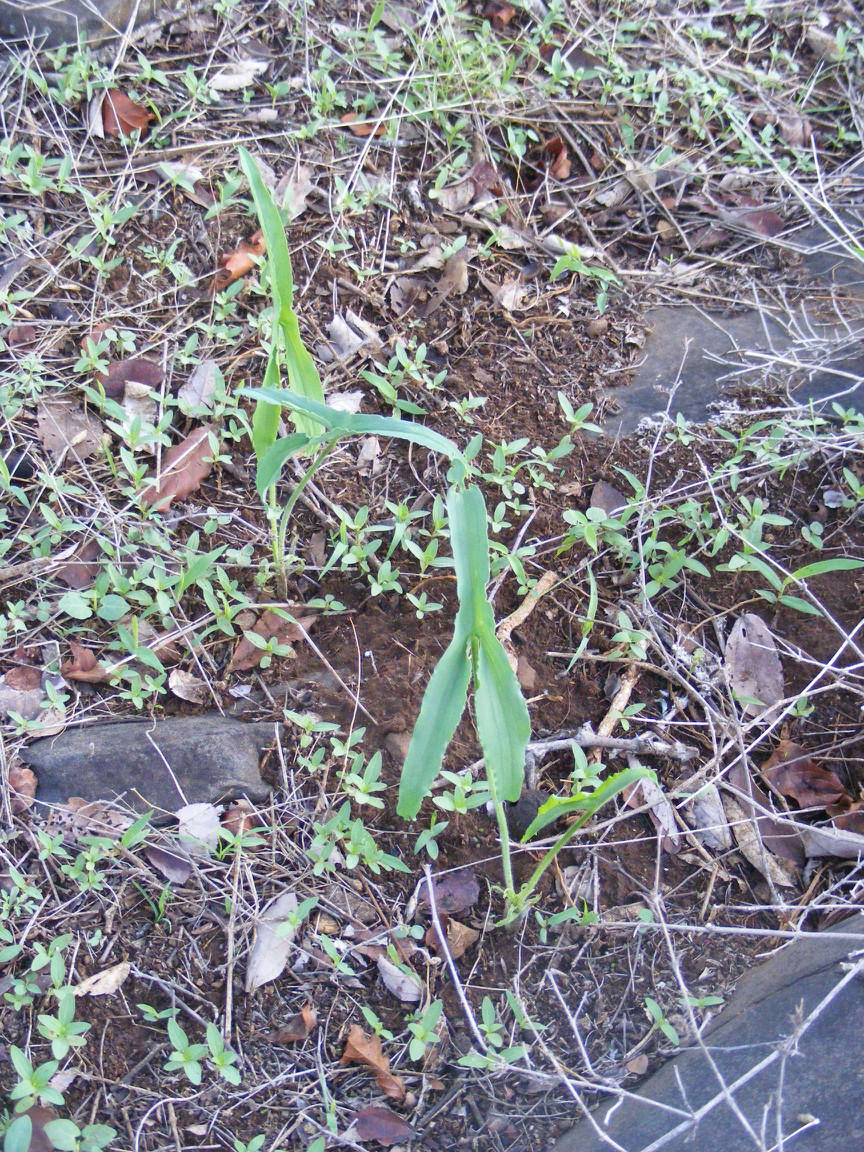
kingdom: Plantae
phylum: Tracheophyta
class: Liliopsida
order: Alismatales
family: Araceae
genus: Stylochaeton
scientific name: Stylochaeton natalensis
